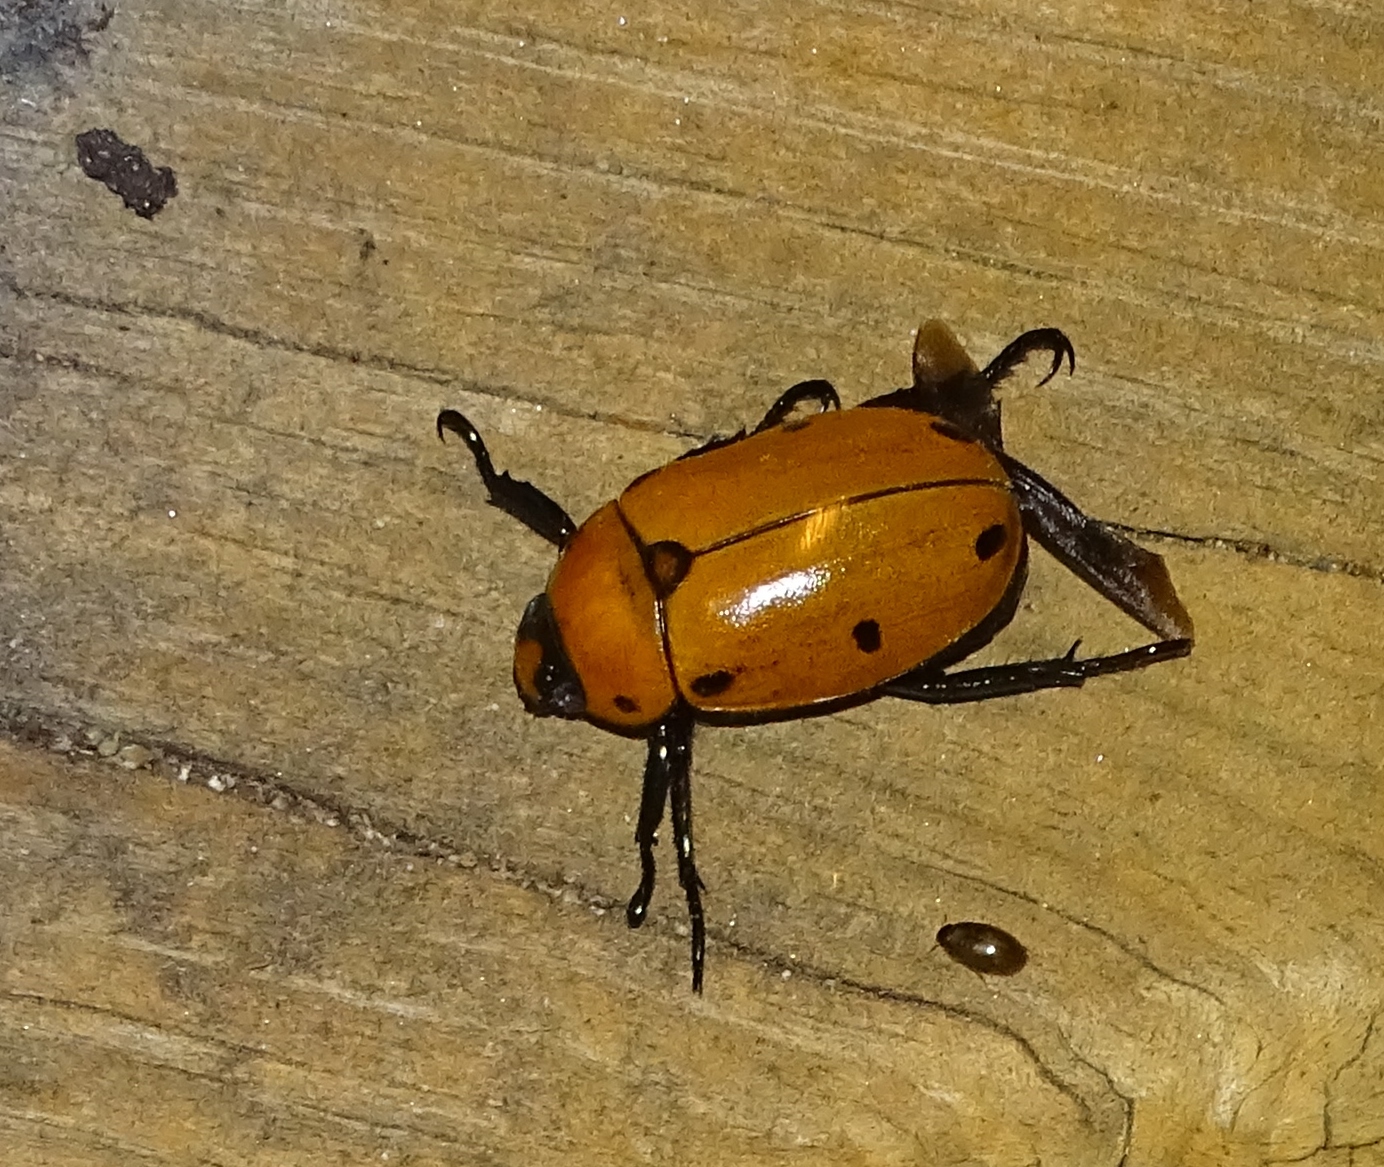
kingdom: Animalia
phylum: Arthropoda
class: Insecta
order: Coleoptera
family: Scarabaeidae
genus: Pelidnota
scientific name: Pelidnota punctata
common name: Grapevine beetle
